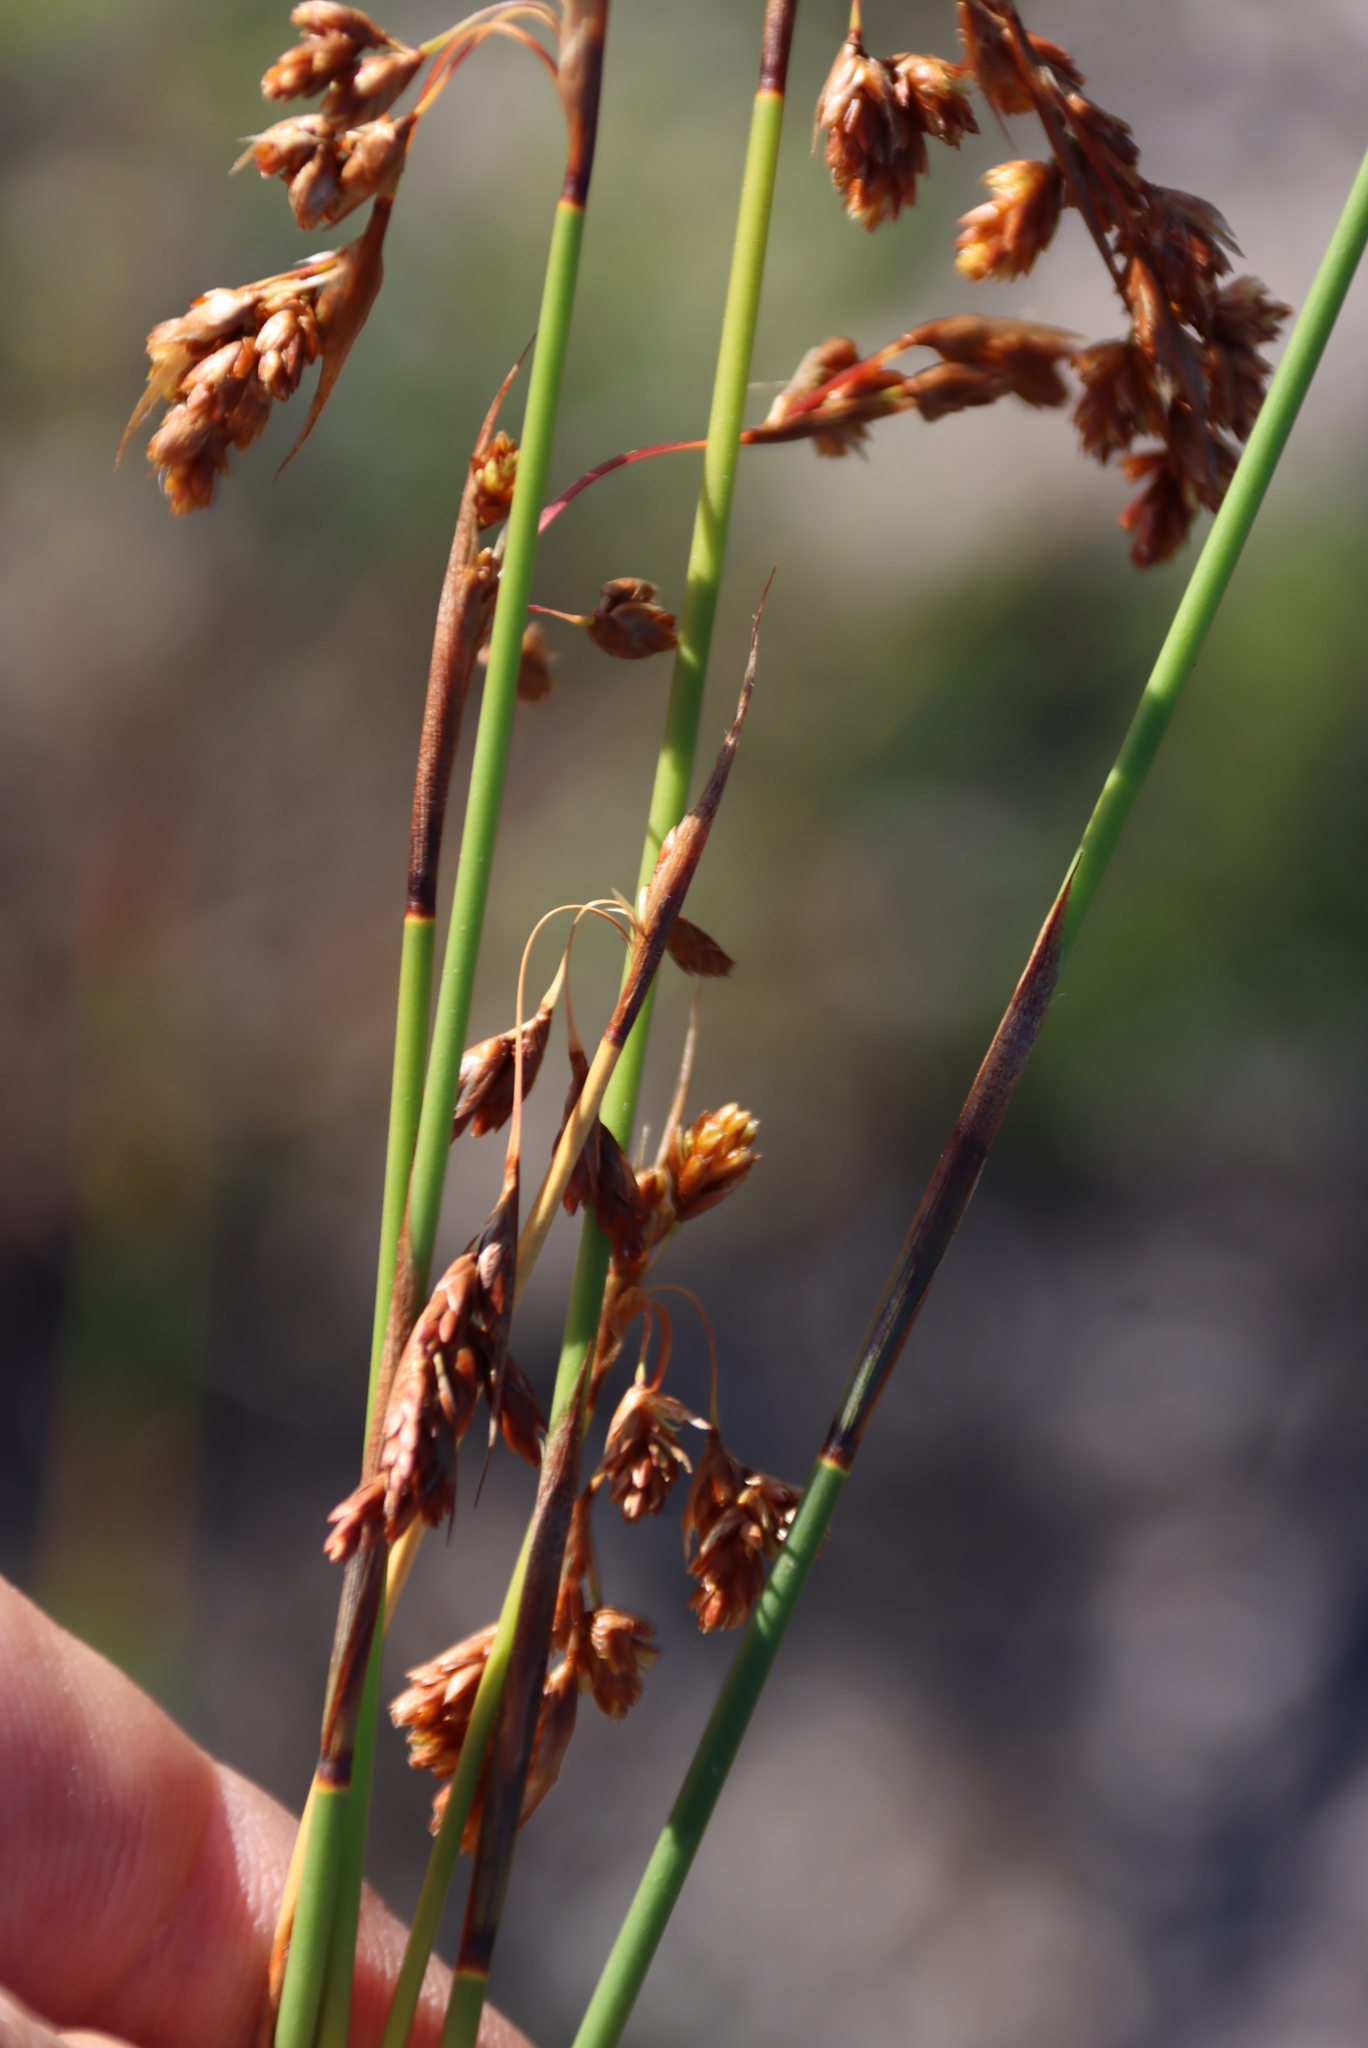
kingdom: Plantae
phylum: Tracheophyta
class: Liliopsida
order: Poales
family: Restionaceae
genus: Thamnochortus
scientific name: Thamnochortus muirii
